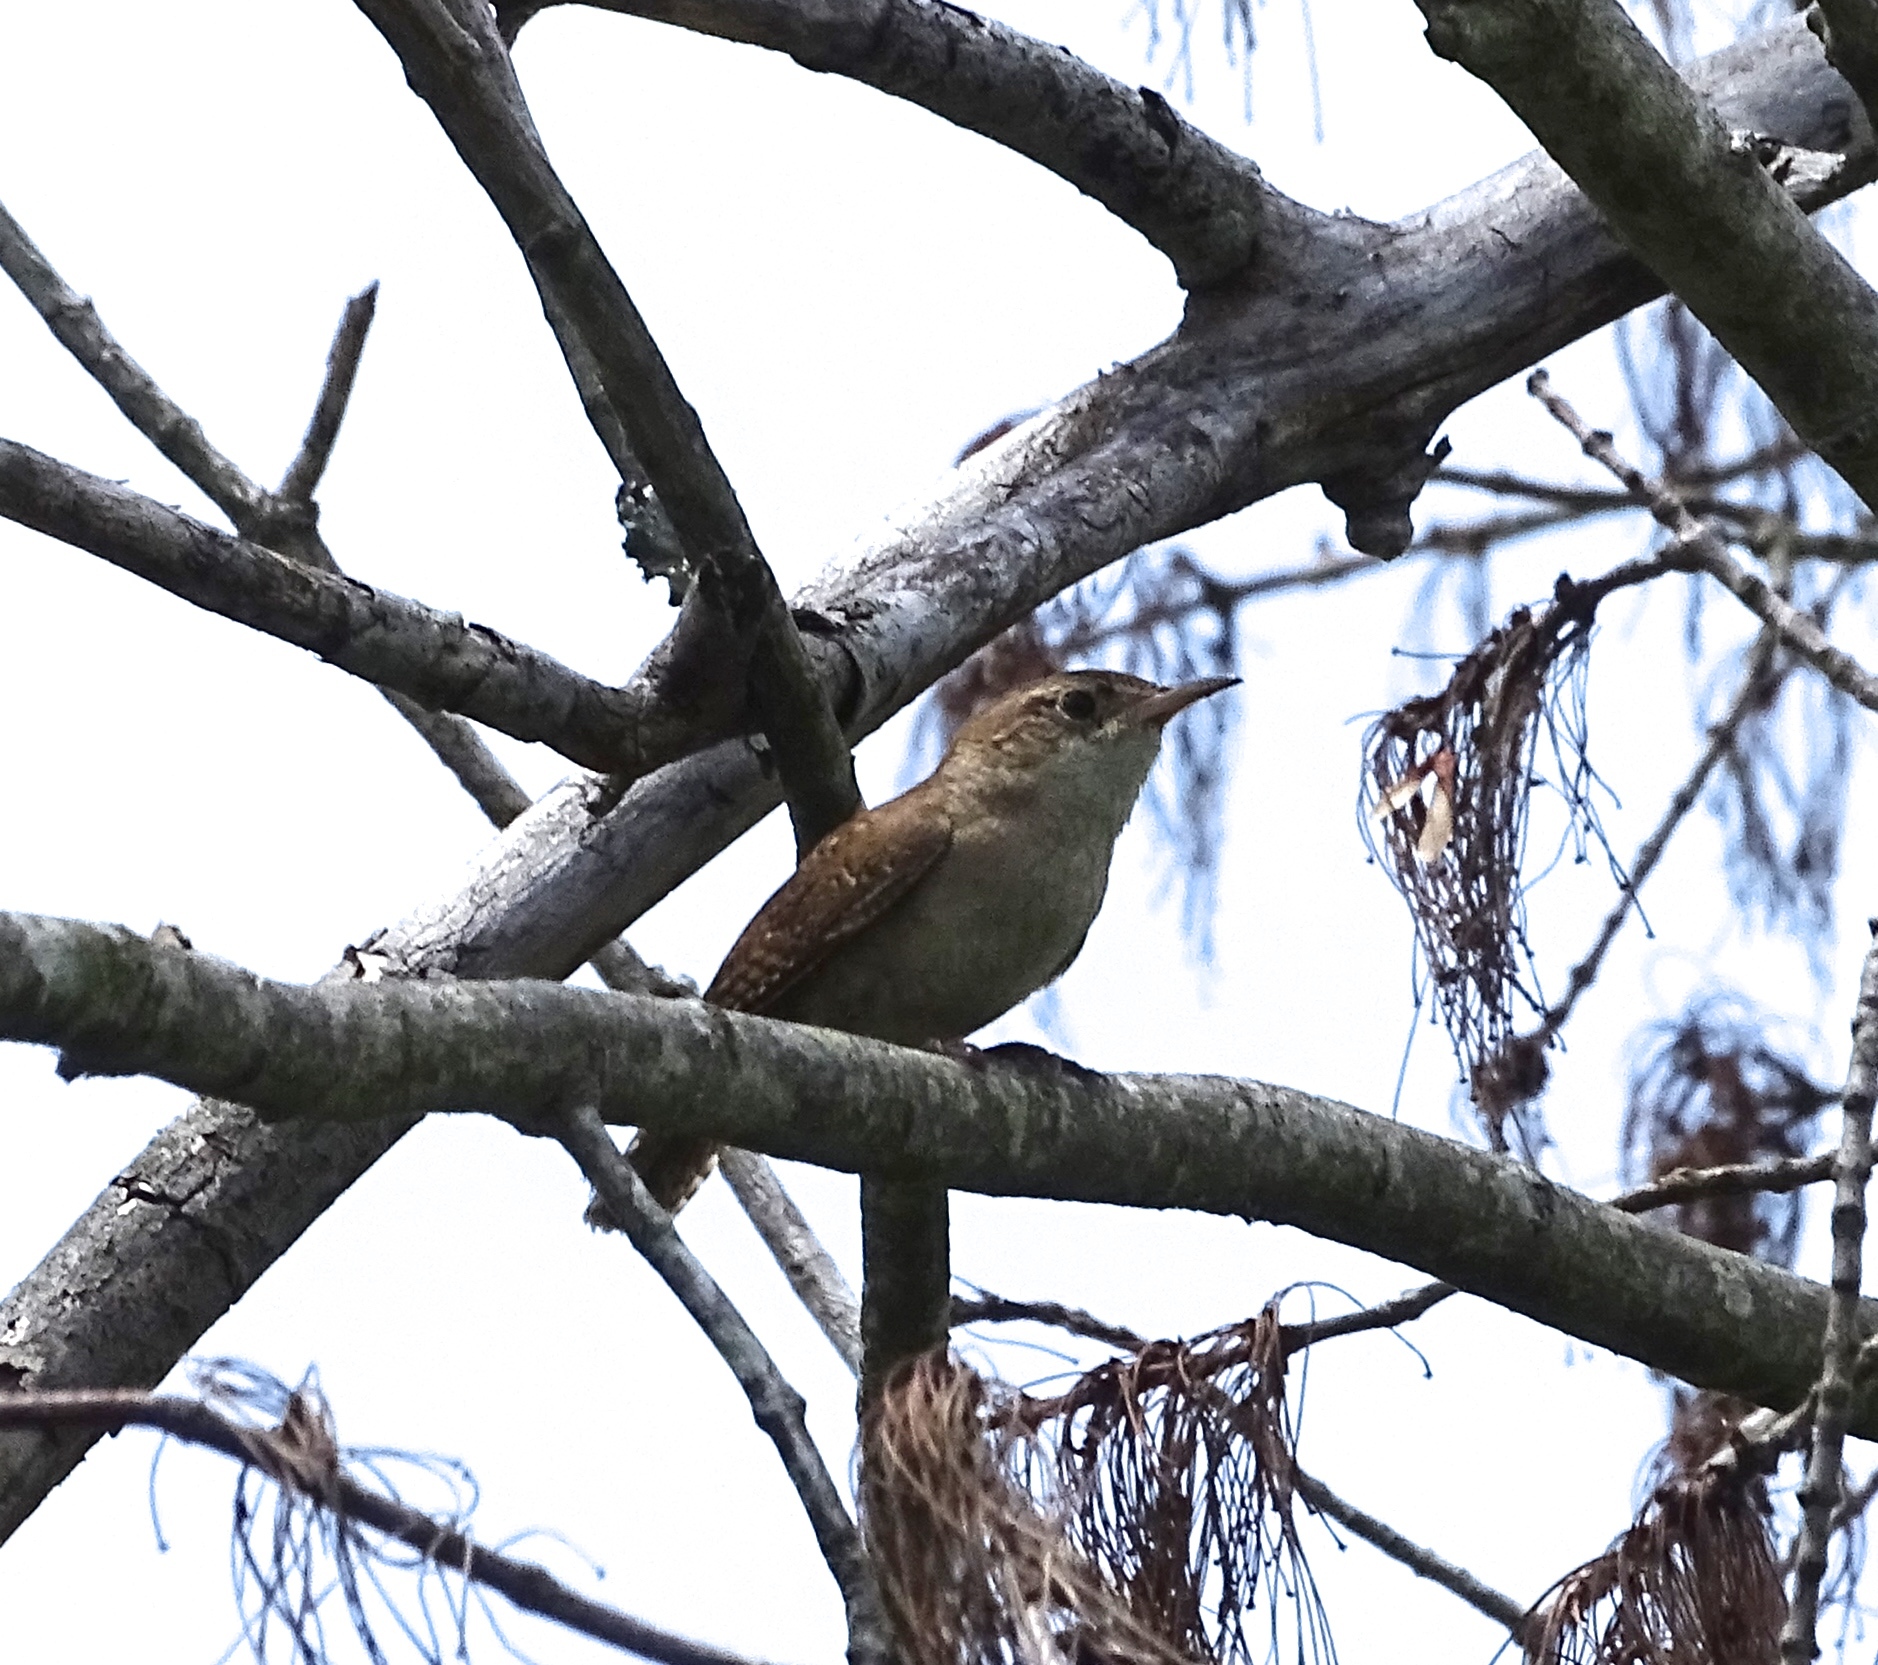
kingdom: Animalia
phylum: Chordata
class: Aves
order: Passeriformes
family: Troglodytidae
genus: Troglodytes
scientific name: Troglodytes aedon
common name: House wren
